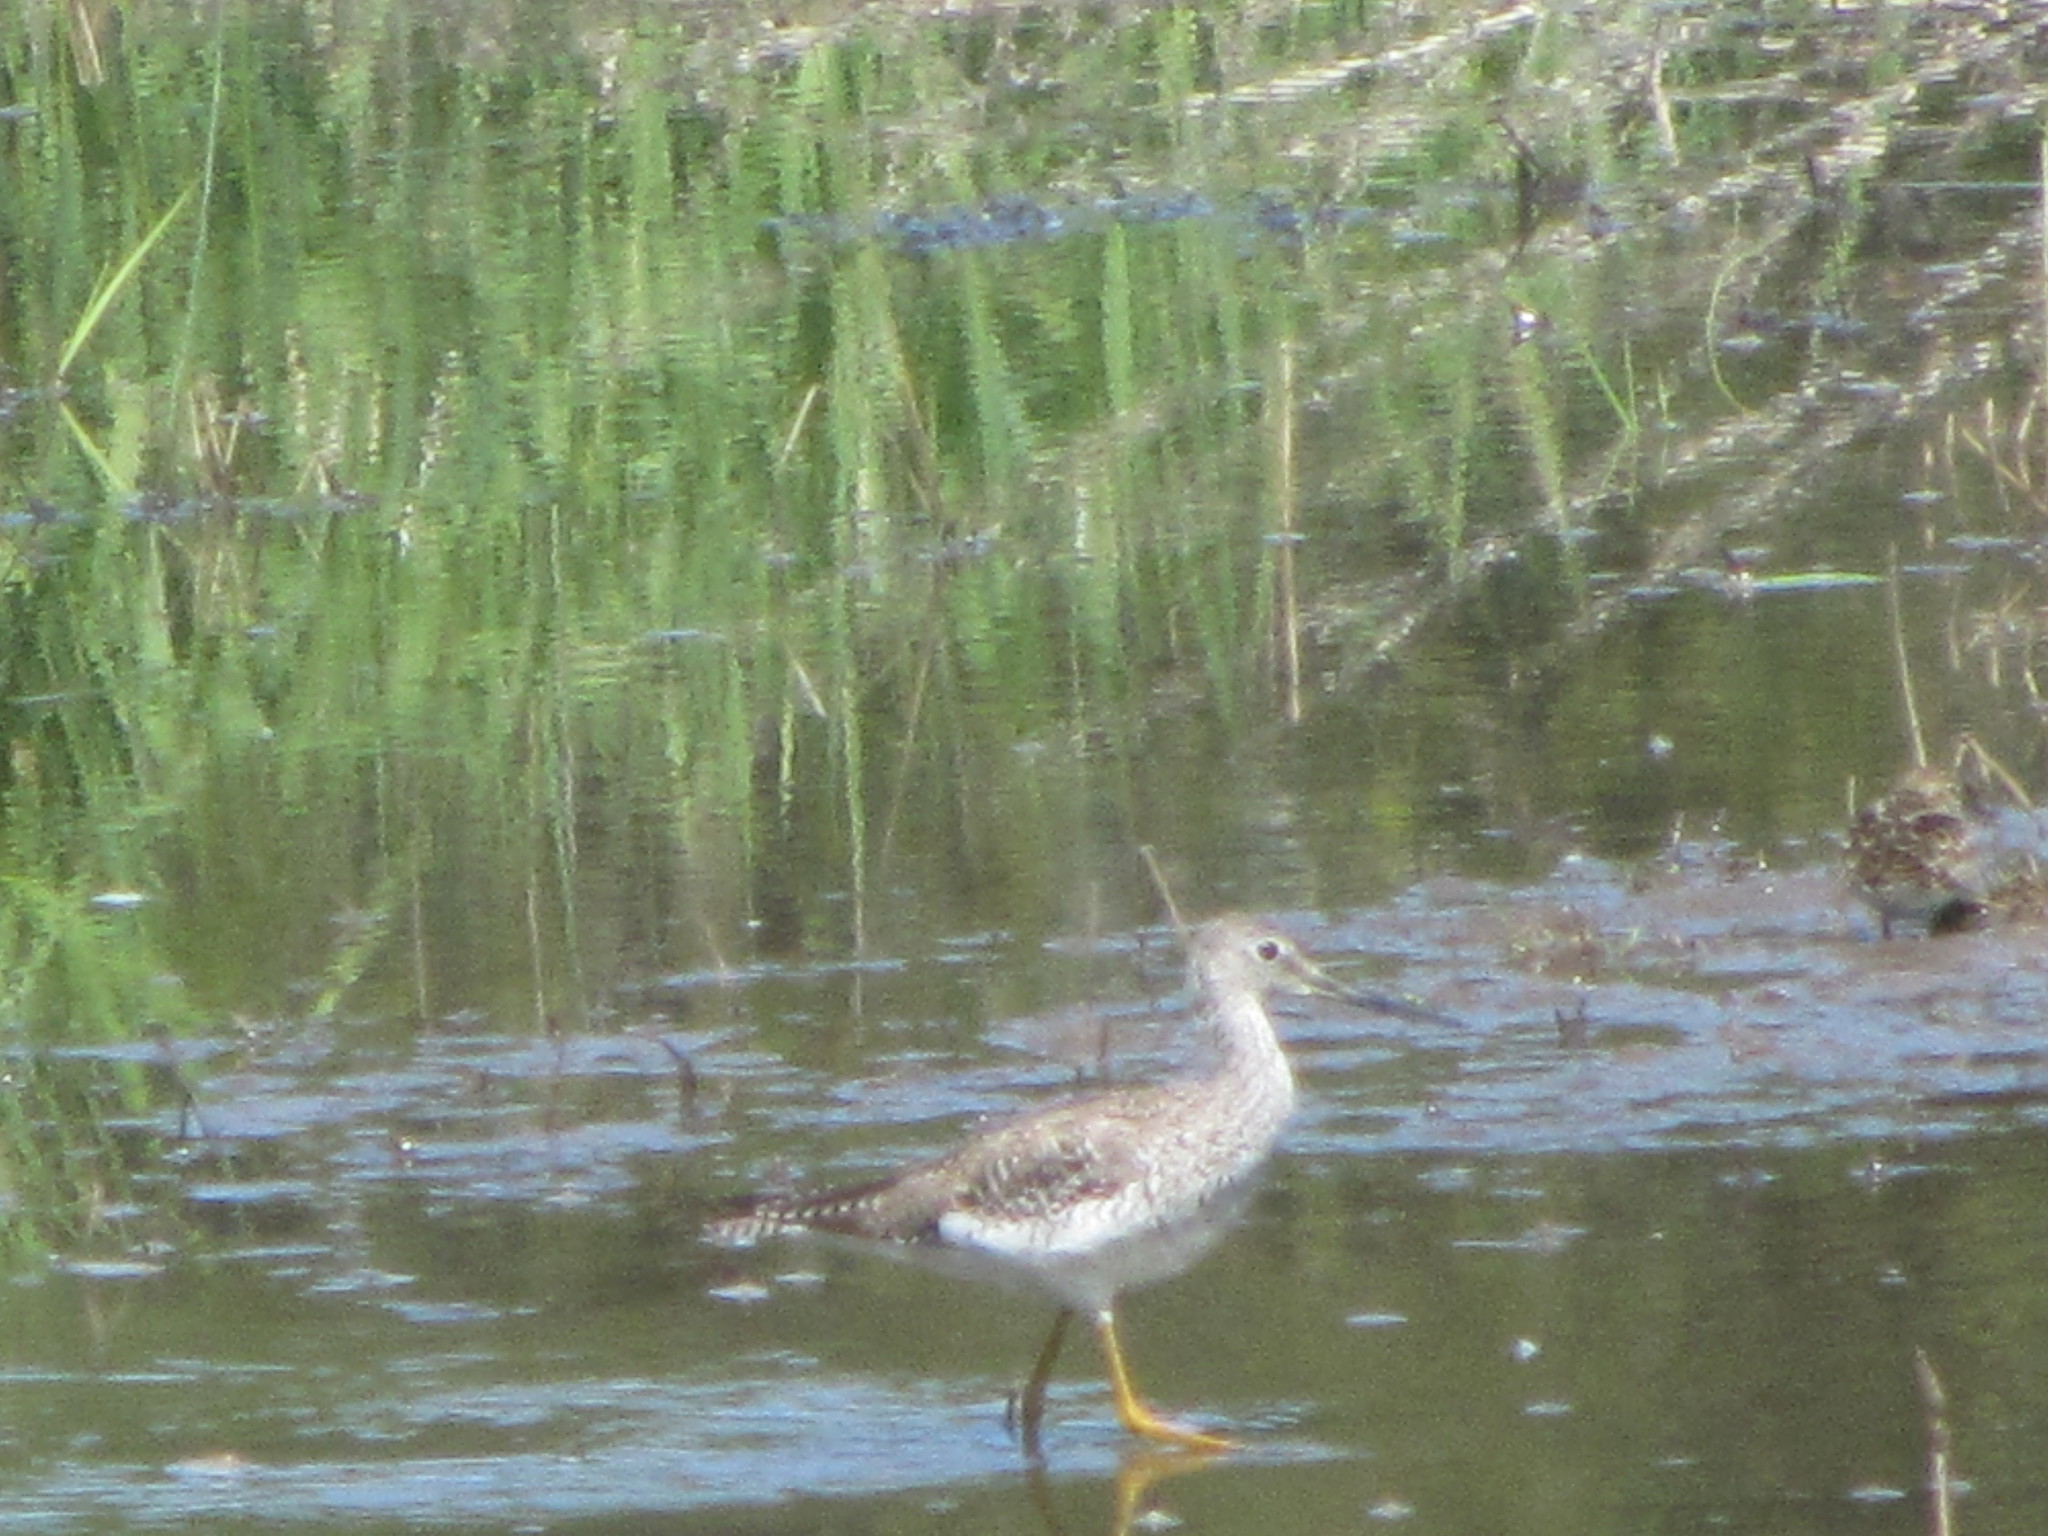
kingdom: Animalia
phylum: Chordata
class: Aves
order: Charadriiformes
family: Scolopacidae
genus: Tringa
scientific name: Tringa melanoleuca
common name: Greater yellowlegs
